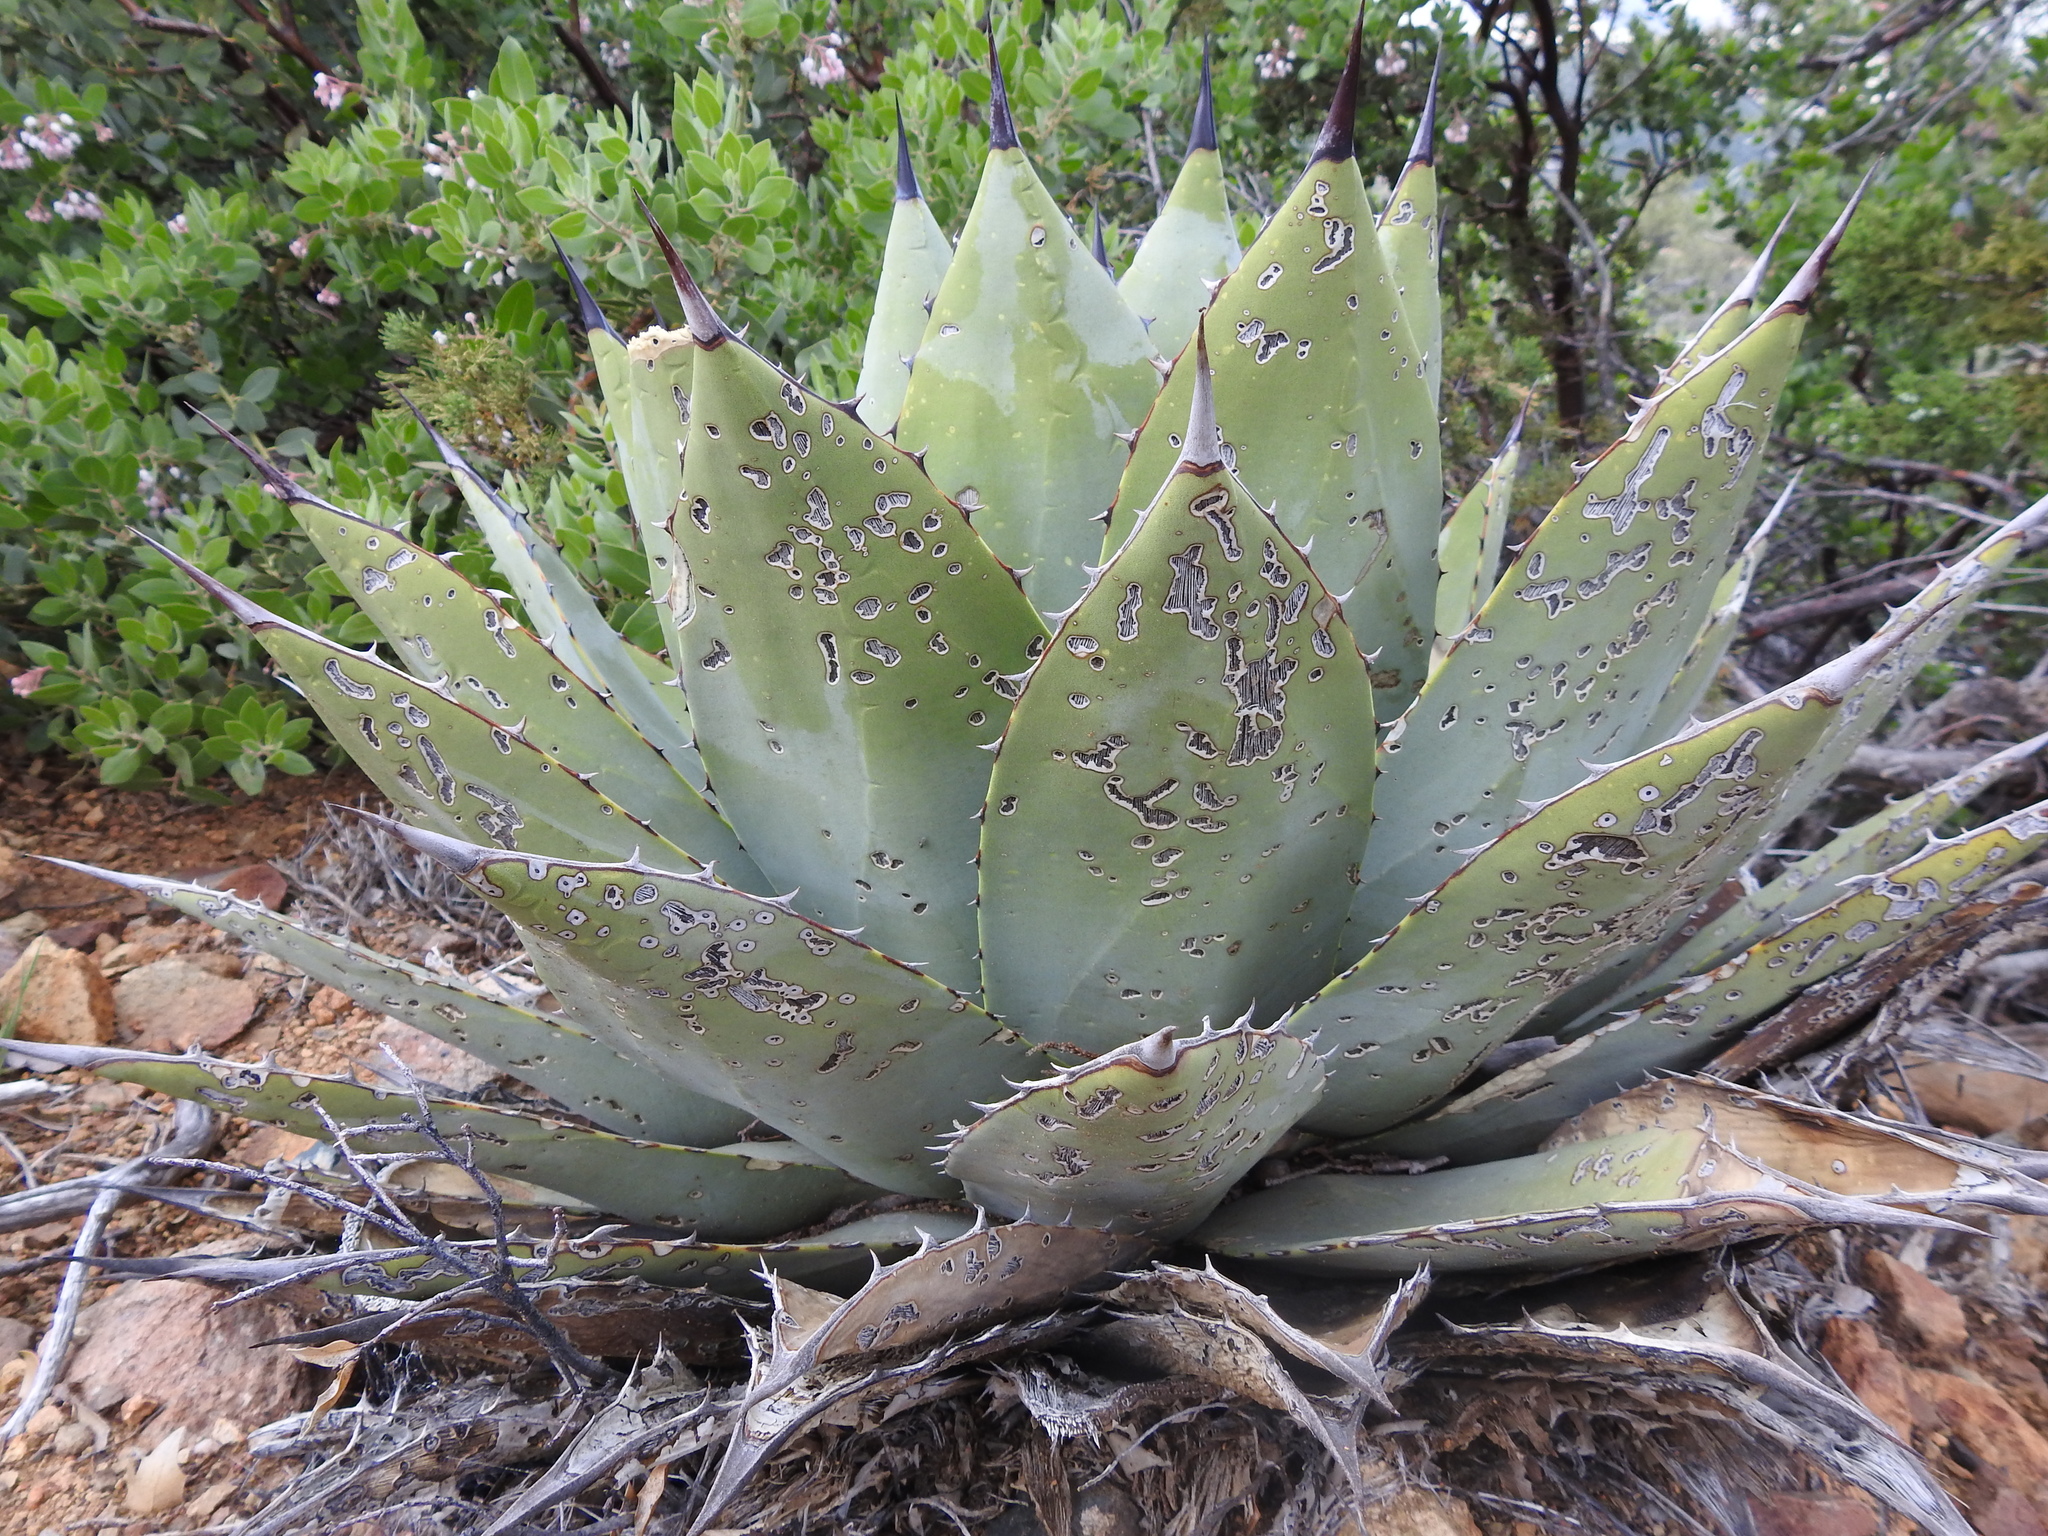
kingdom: Plantae
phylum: Tracheophyta
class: Liliopsida
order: Asparagales
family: Asparagaceae
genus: Agave
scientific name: Agave parryi
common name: Parry's agave
